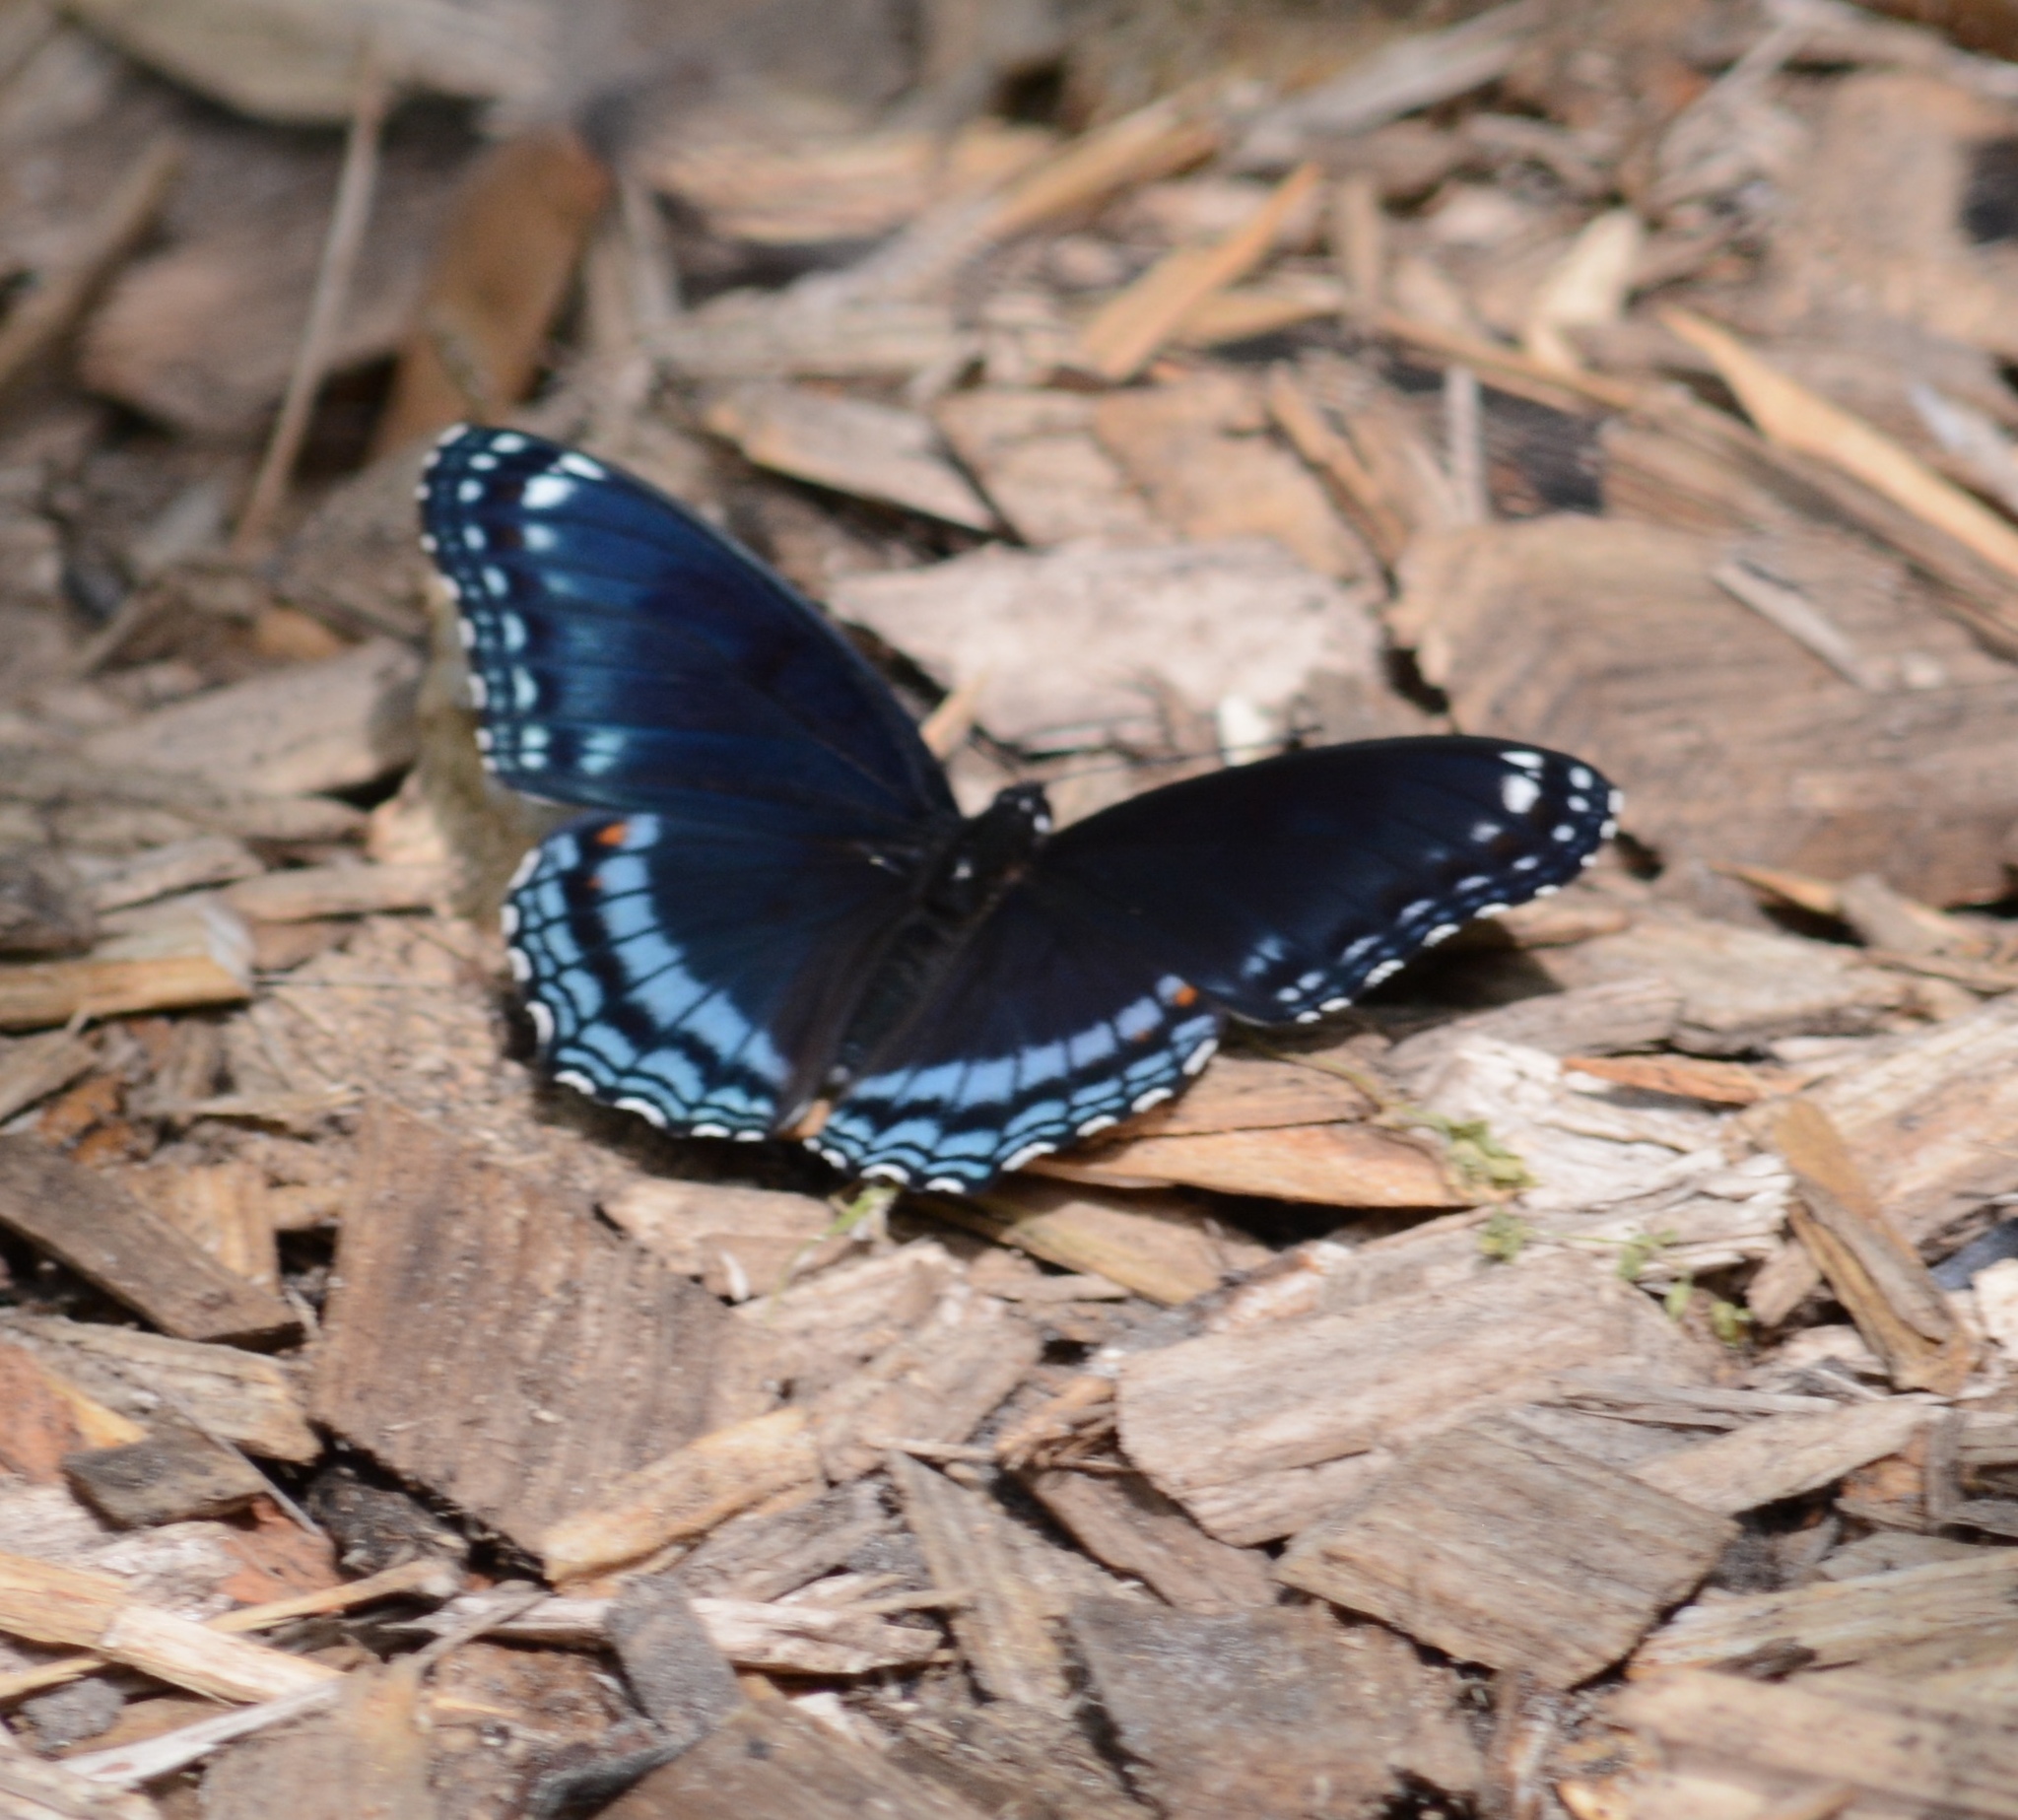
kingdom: Animalia
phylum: Arthropoda
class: Insecta
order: Lepidoptera
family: Nymphalidae
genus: Limenitis
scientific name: Limenitis arthemis
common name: Red-spotted admiral
